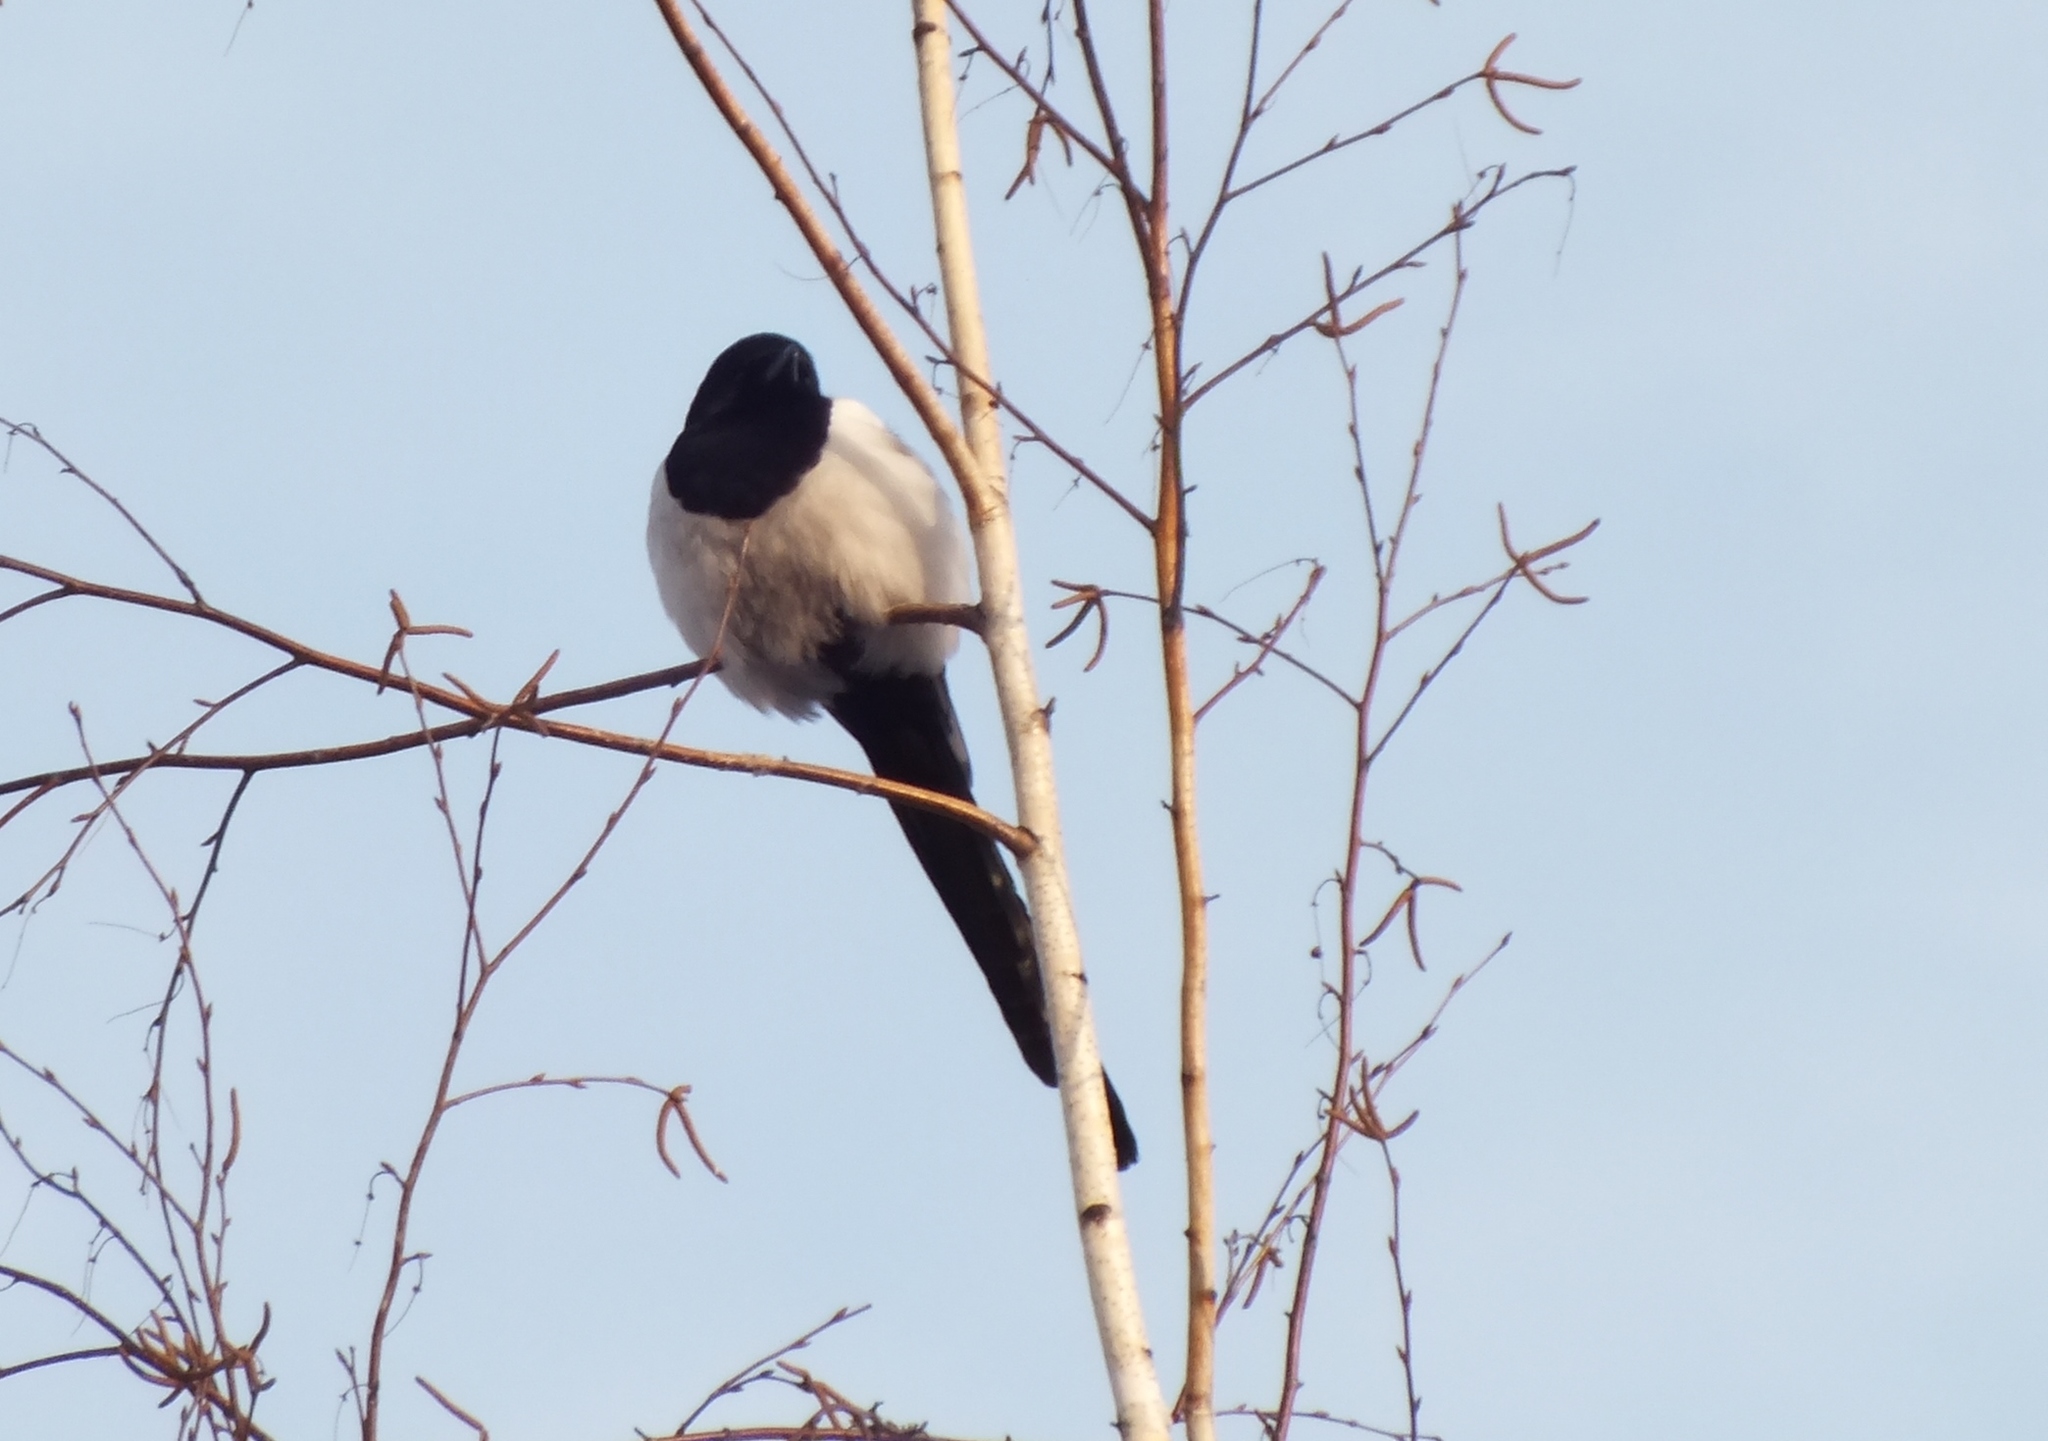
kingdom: Animalia
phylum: Chordata
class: Aves
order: Passeriformes
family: Corvidae
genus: Pica
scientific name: Pica pica
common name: Eurasian magpie
